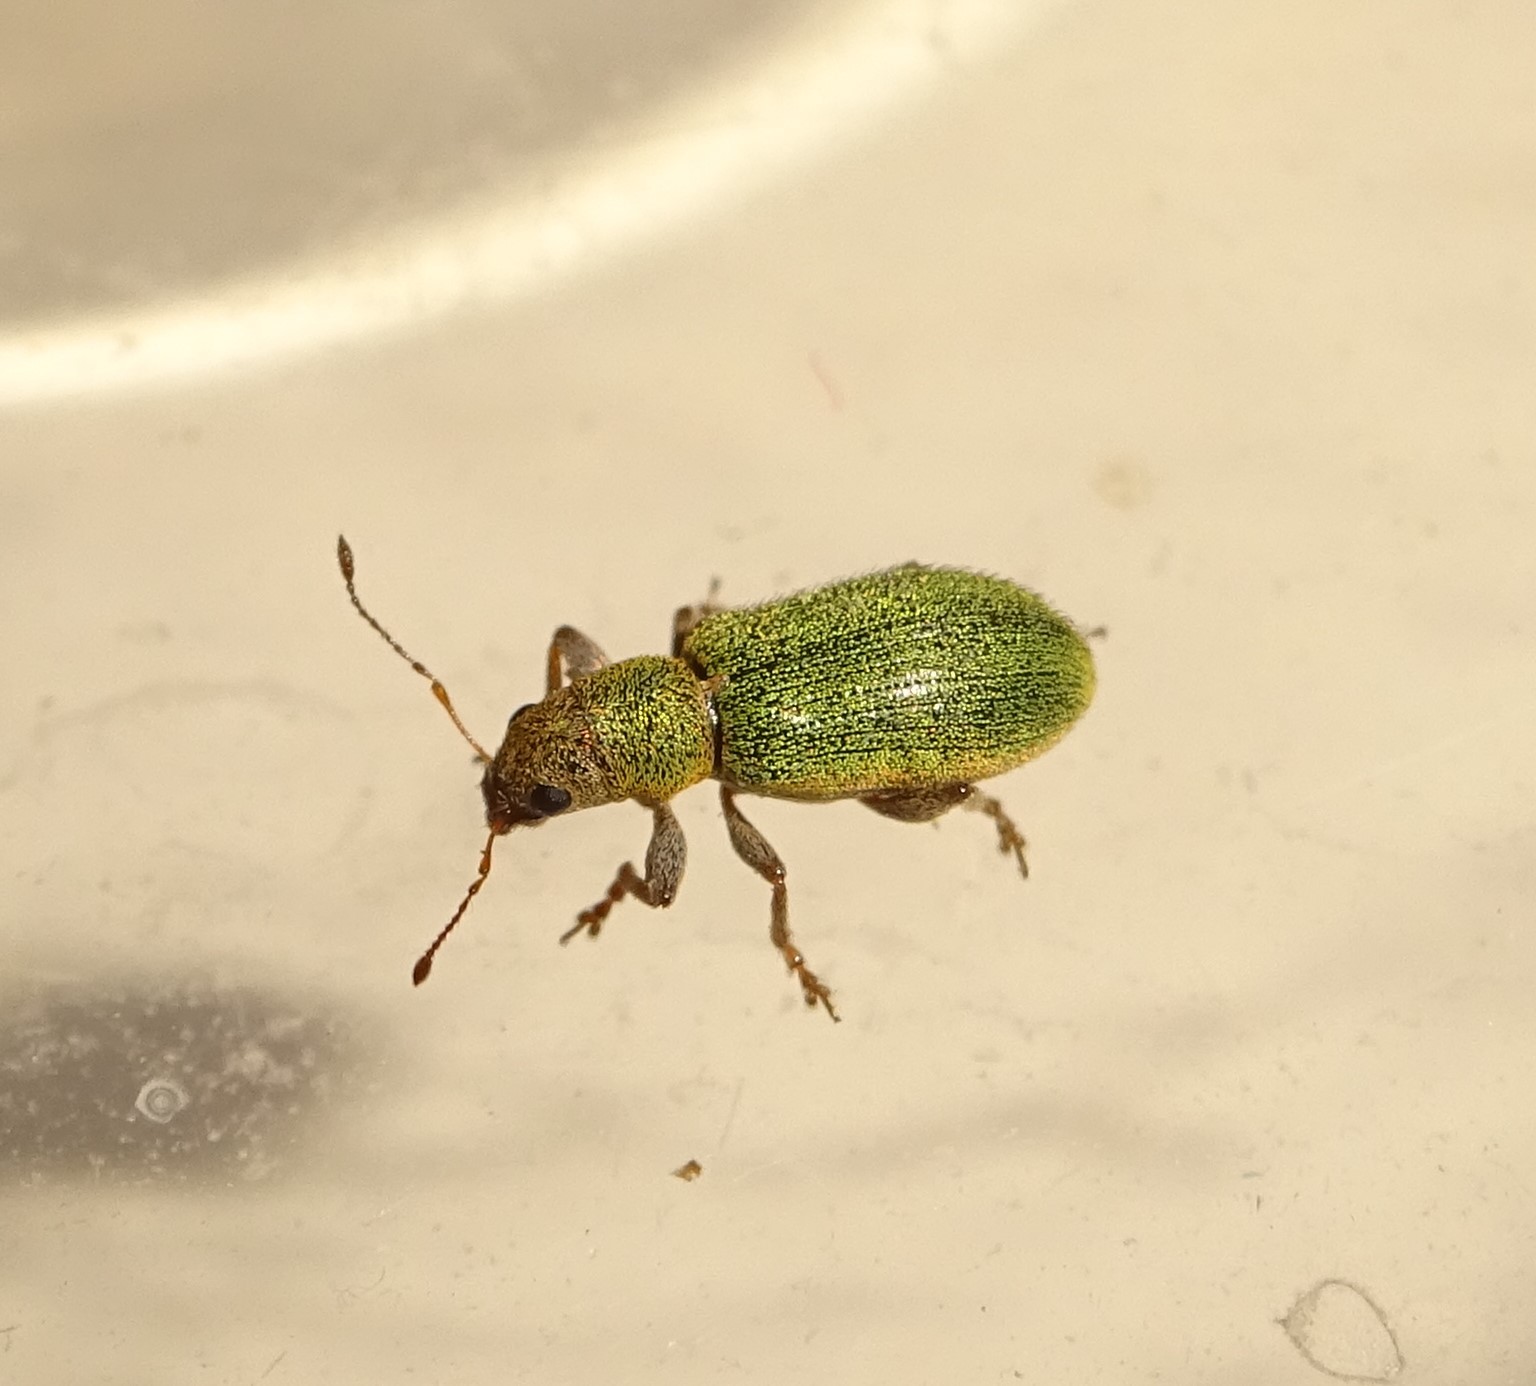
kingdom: Animalia
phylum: Arthropoda
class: Insecta
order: Coleoptera
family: Curculionidae
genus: Pachyrhinus
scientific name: Pachyrhinus lethierryi
